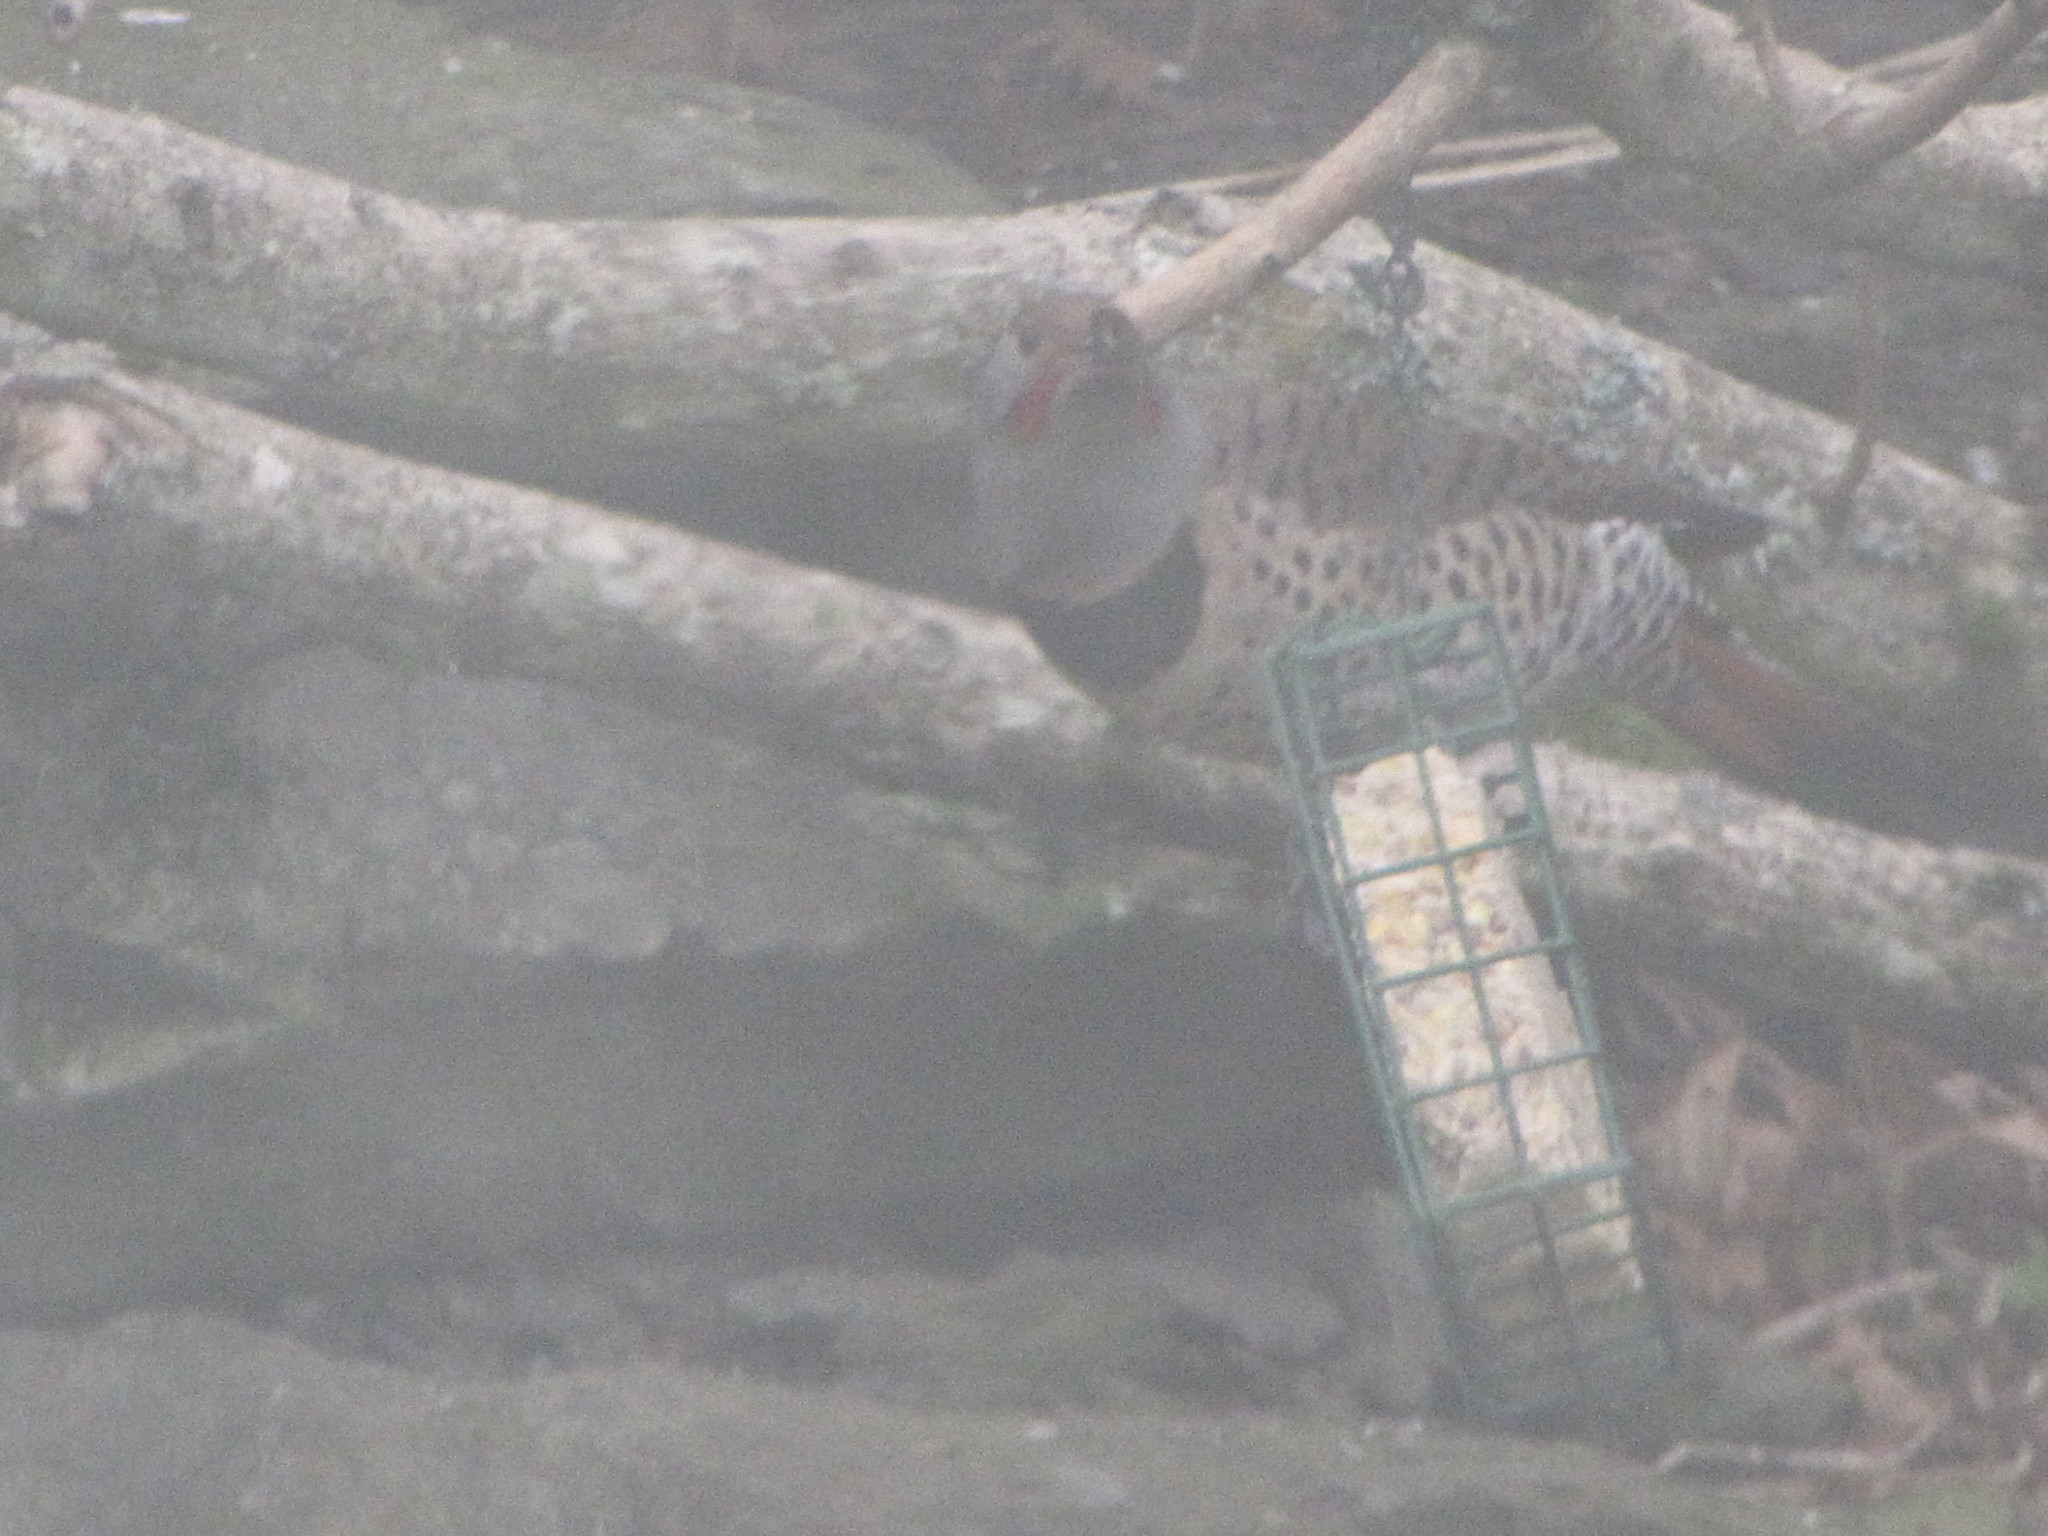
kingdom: Animalia
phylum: Chordata
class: Aves
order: Piciformes
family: Picidae
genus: Colaptes
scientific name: Colaptes auratus
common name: Northern flicker
